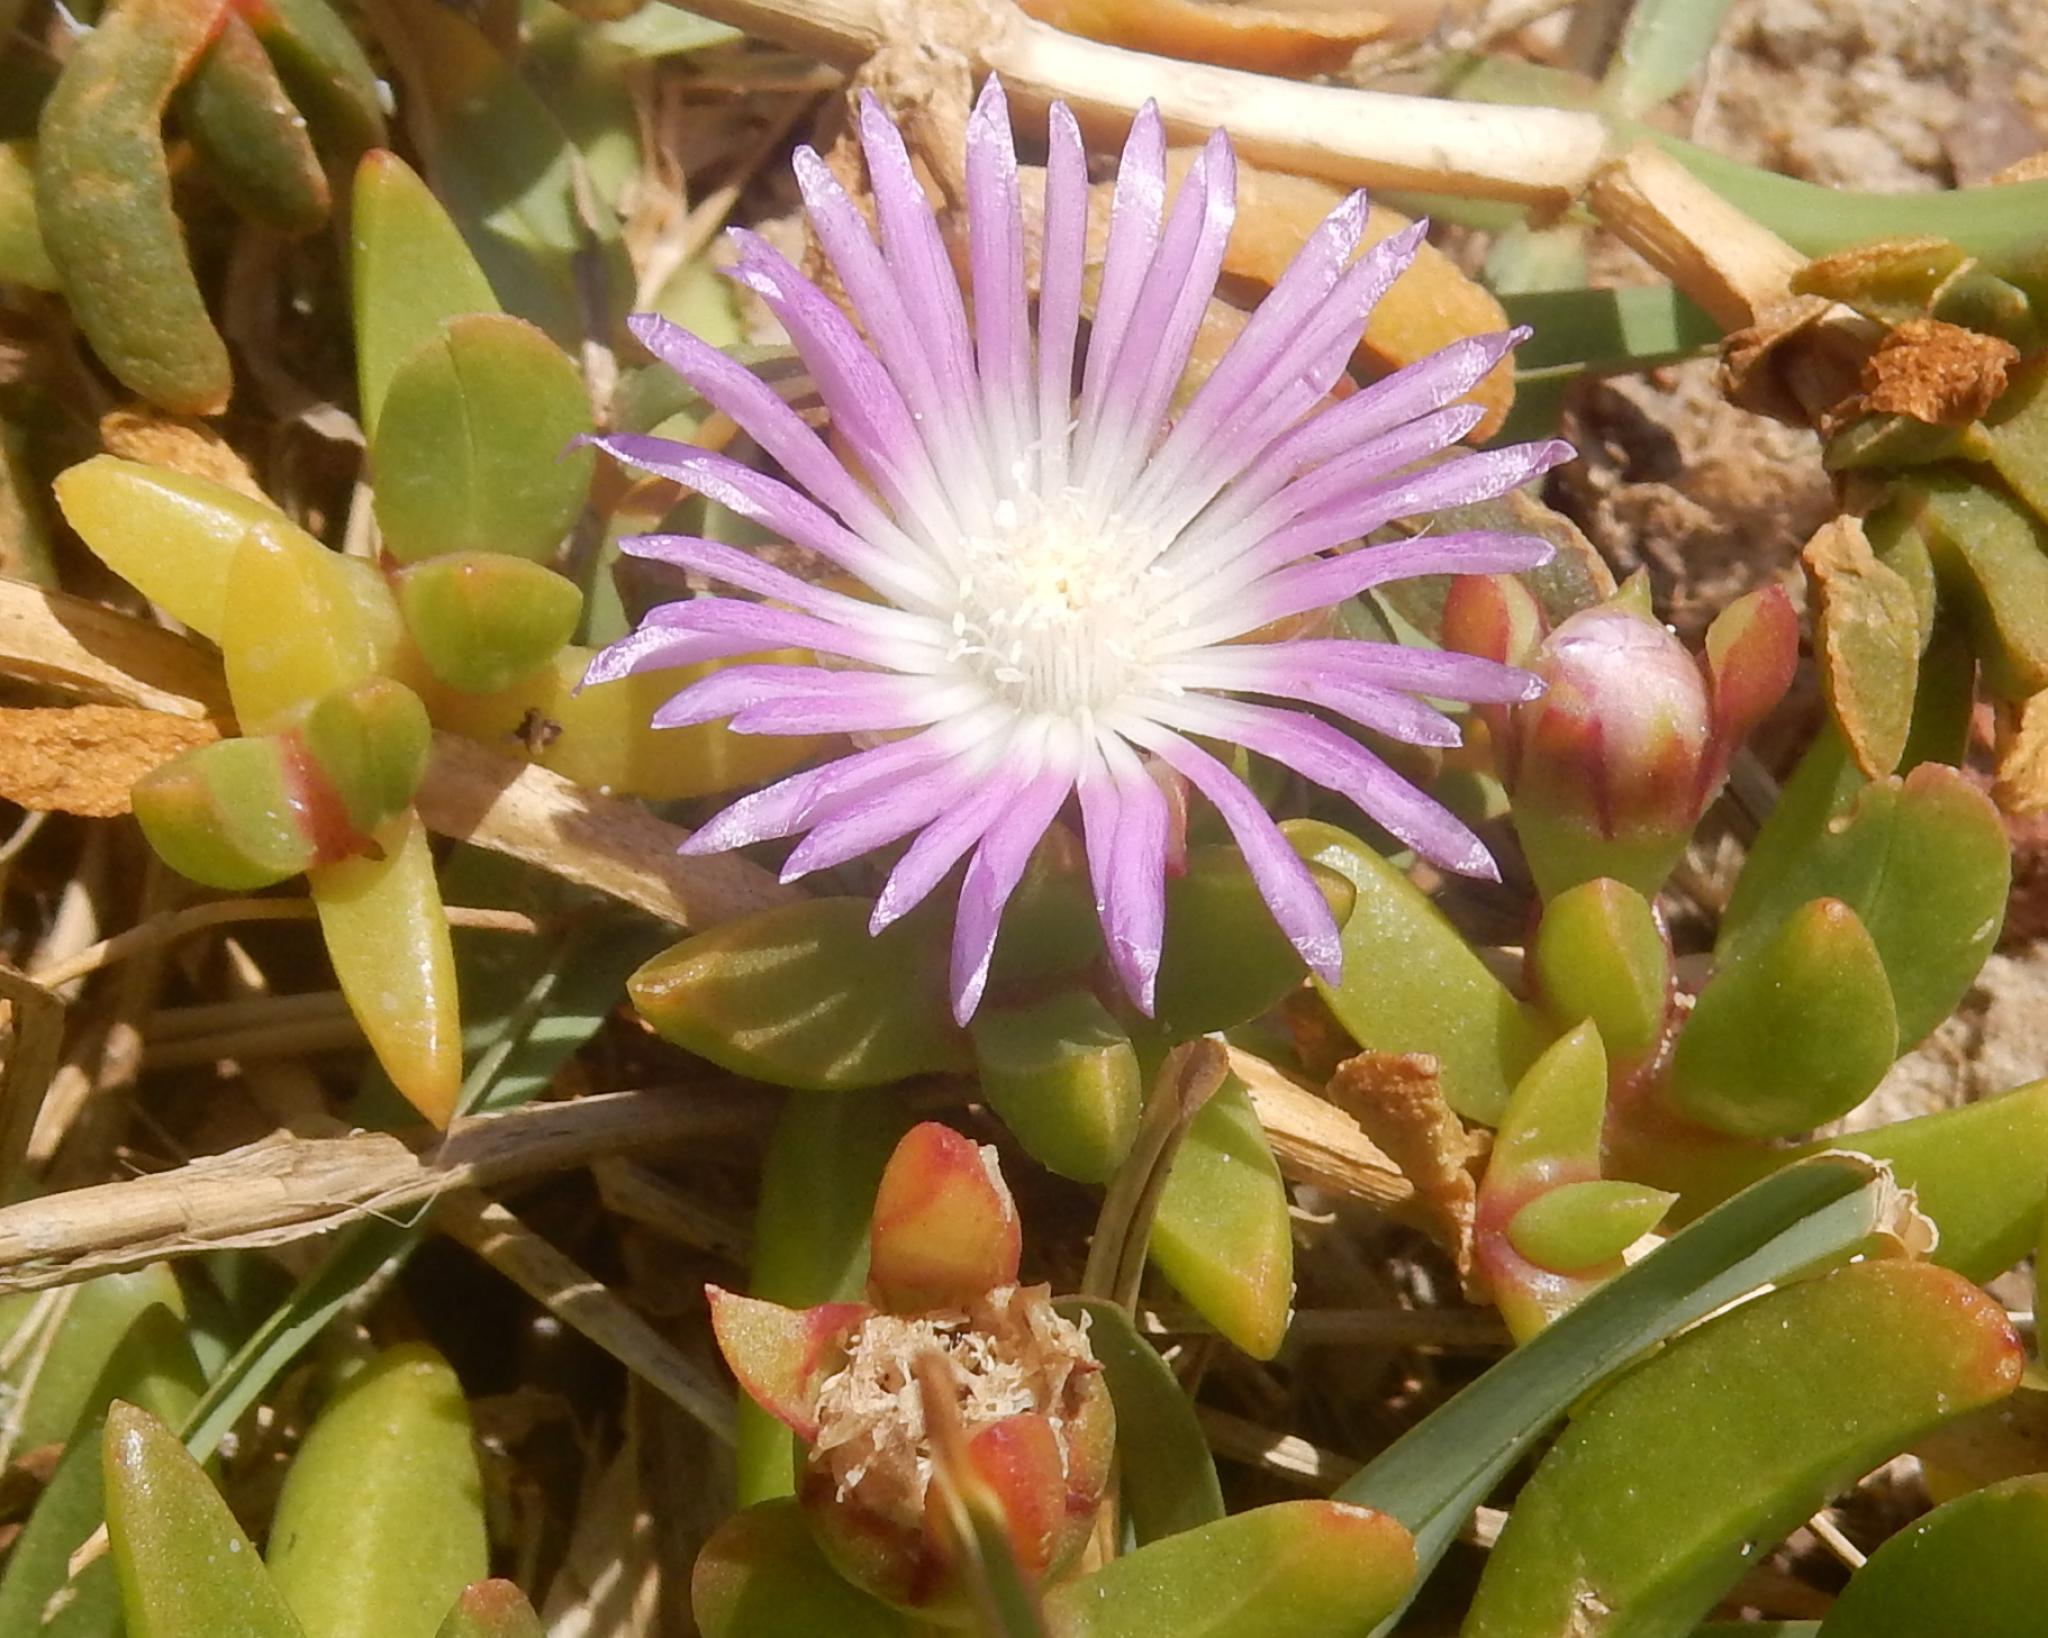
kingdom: Plantae
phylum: Tracheophyta
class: Magnoliopsida
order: Caryophyllales
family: Aizoaceae
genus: Disphyma
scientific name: Disphyma crassifolium
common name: Purple dewplant
